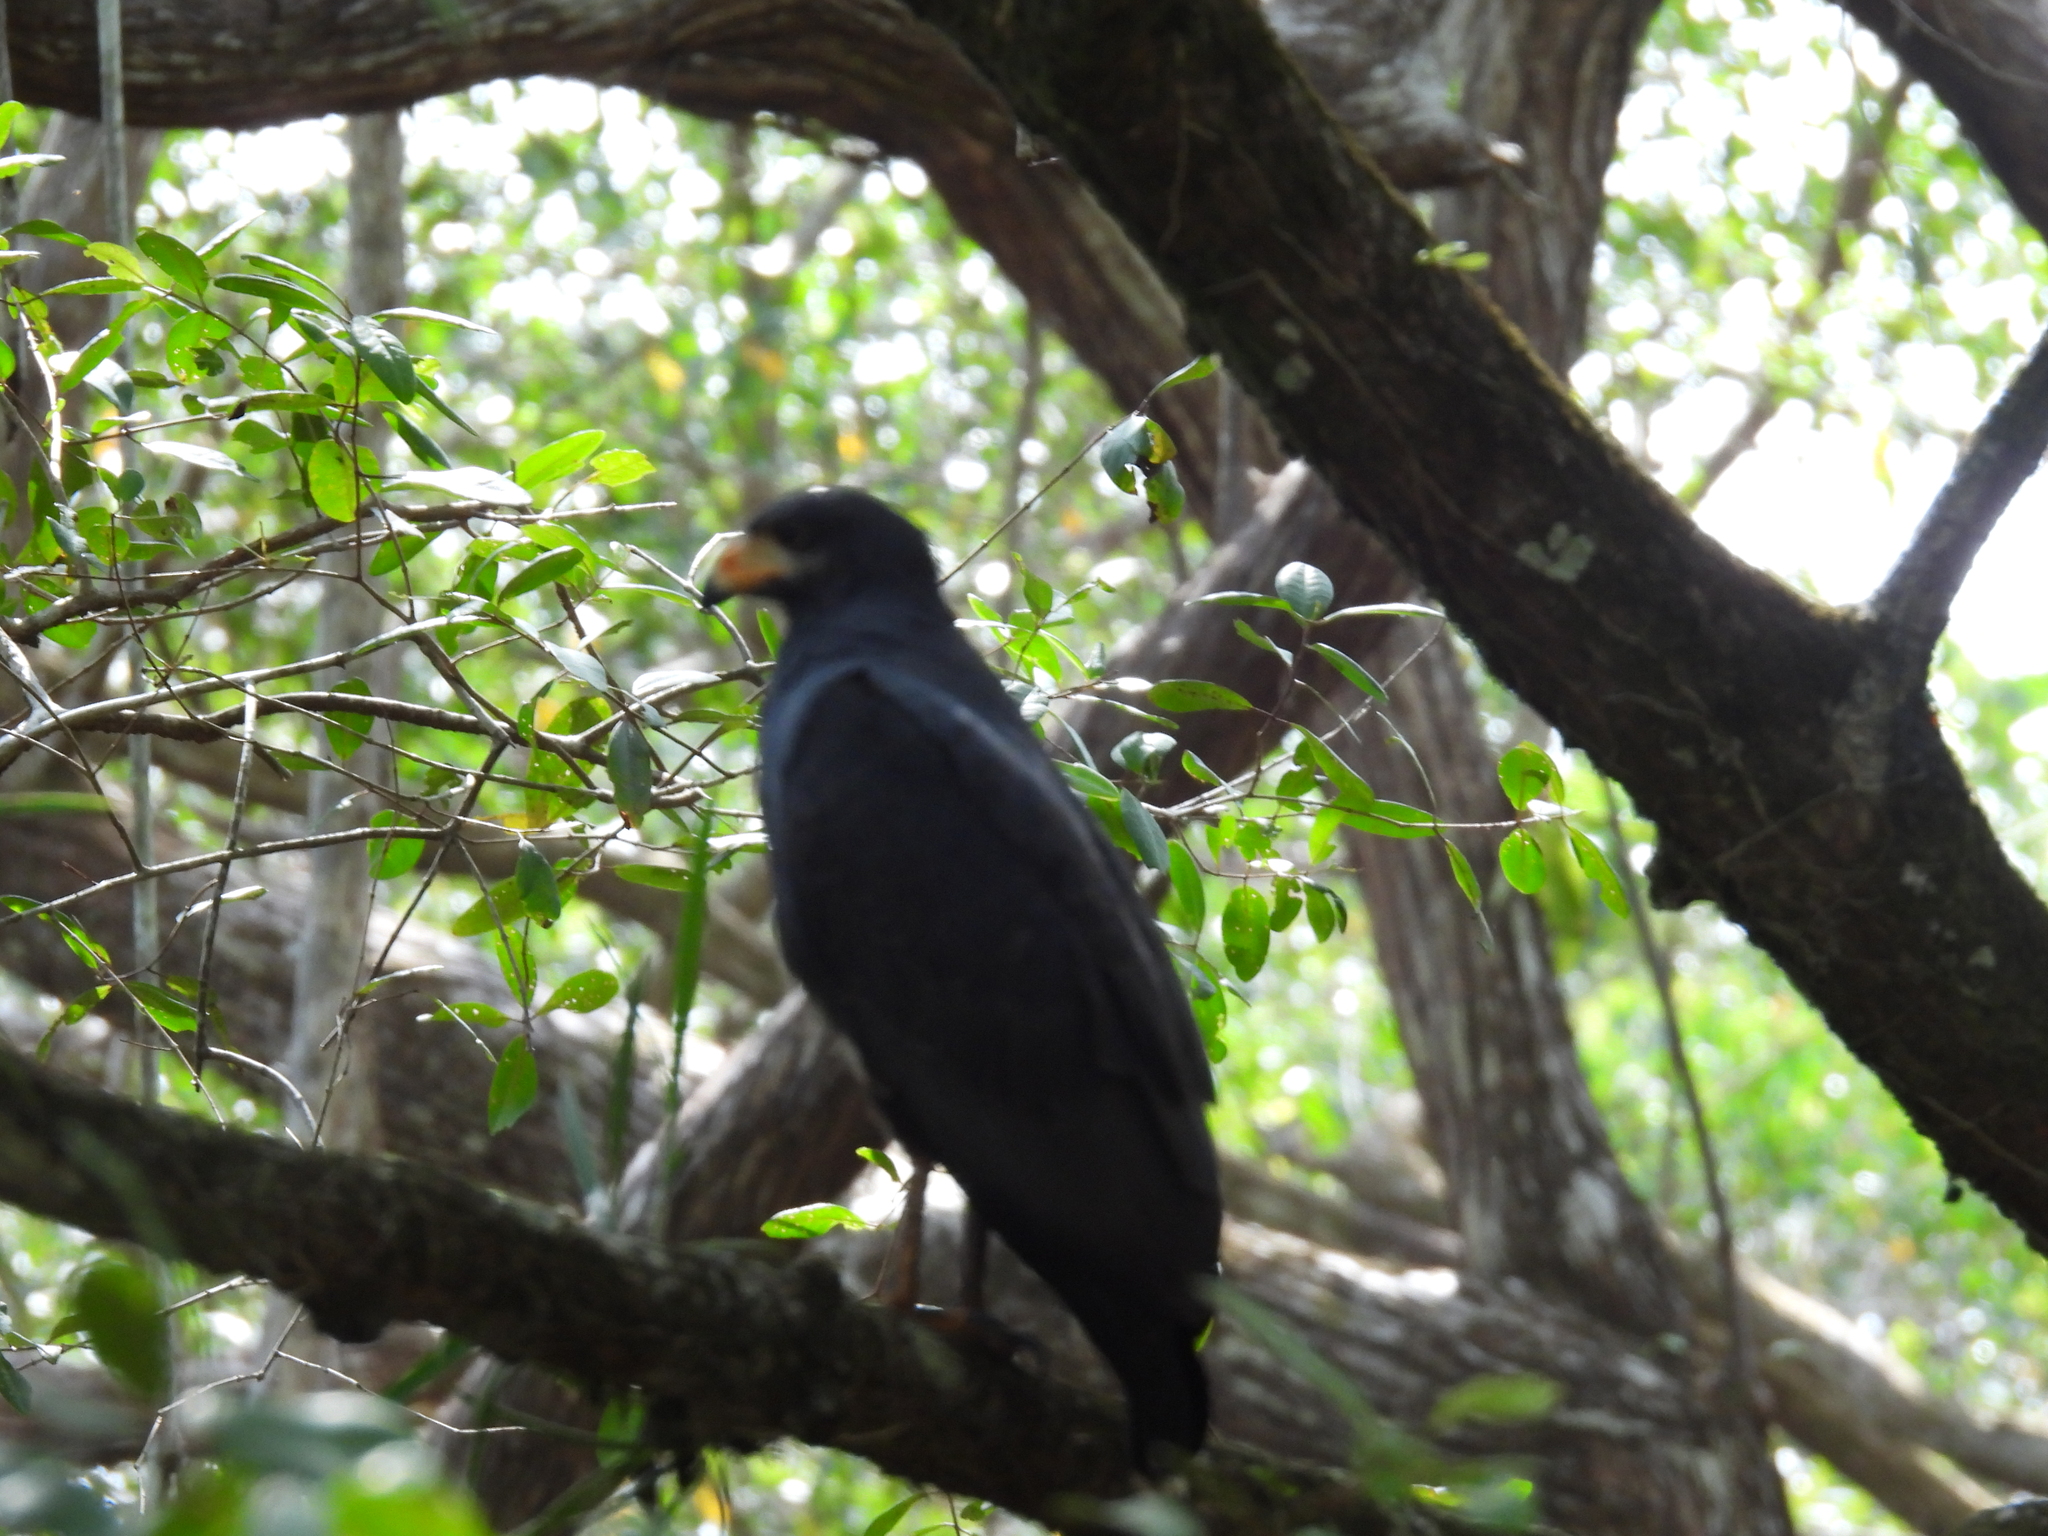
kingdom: Animalia
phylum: Chordata
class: Aves
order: Accipitriformes
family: Accipitridae
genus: Buteogallus
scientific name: Buteogallus anthracinus
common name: Common black hawk
